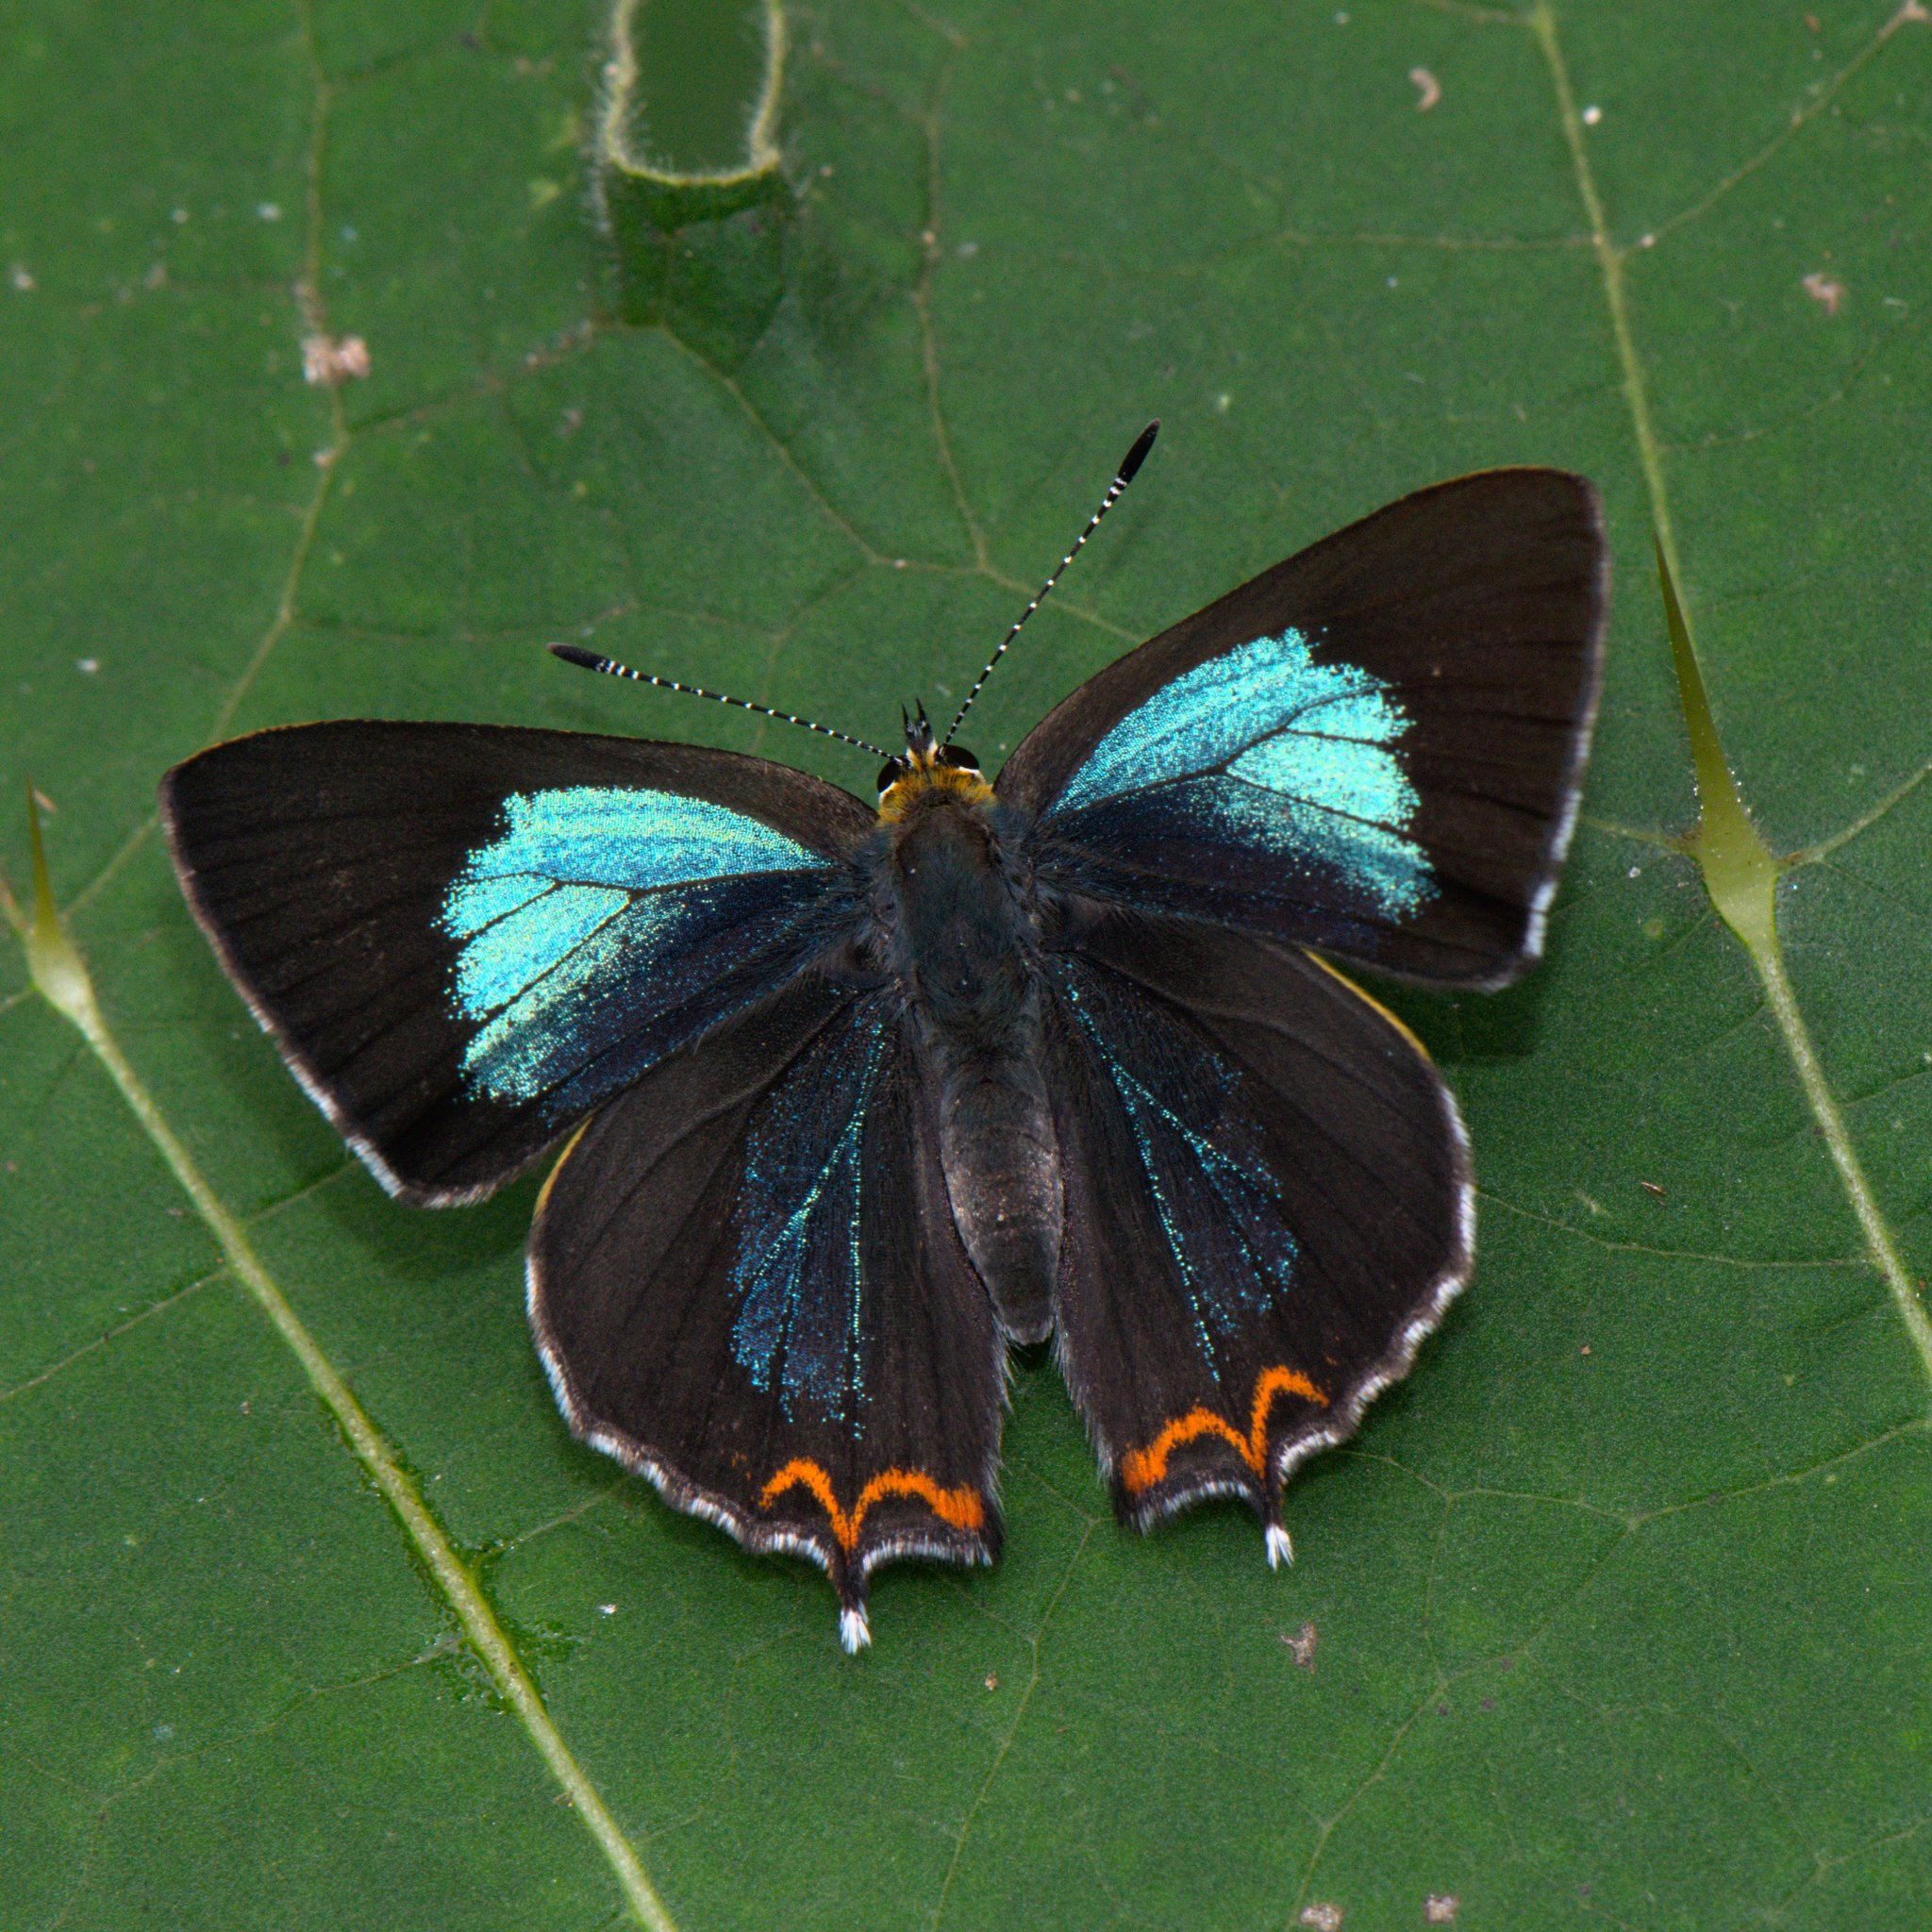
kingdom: Animalia
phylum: Arthropoda
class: Insecta
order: Lepidoptera
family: Lycaenidae
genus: Heliophorus
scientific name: Heliophorus
